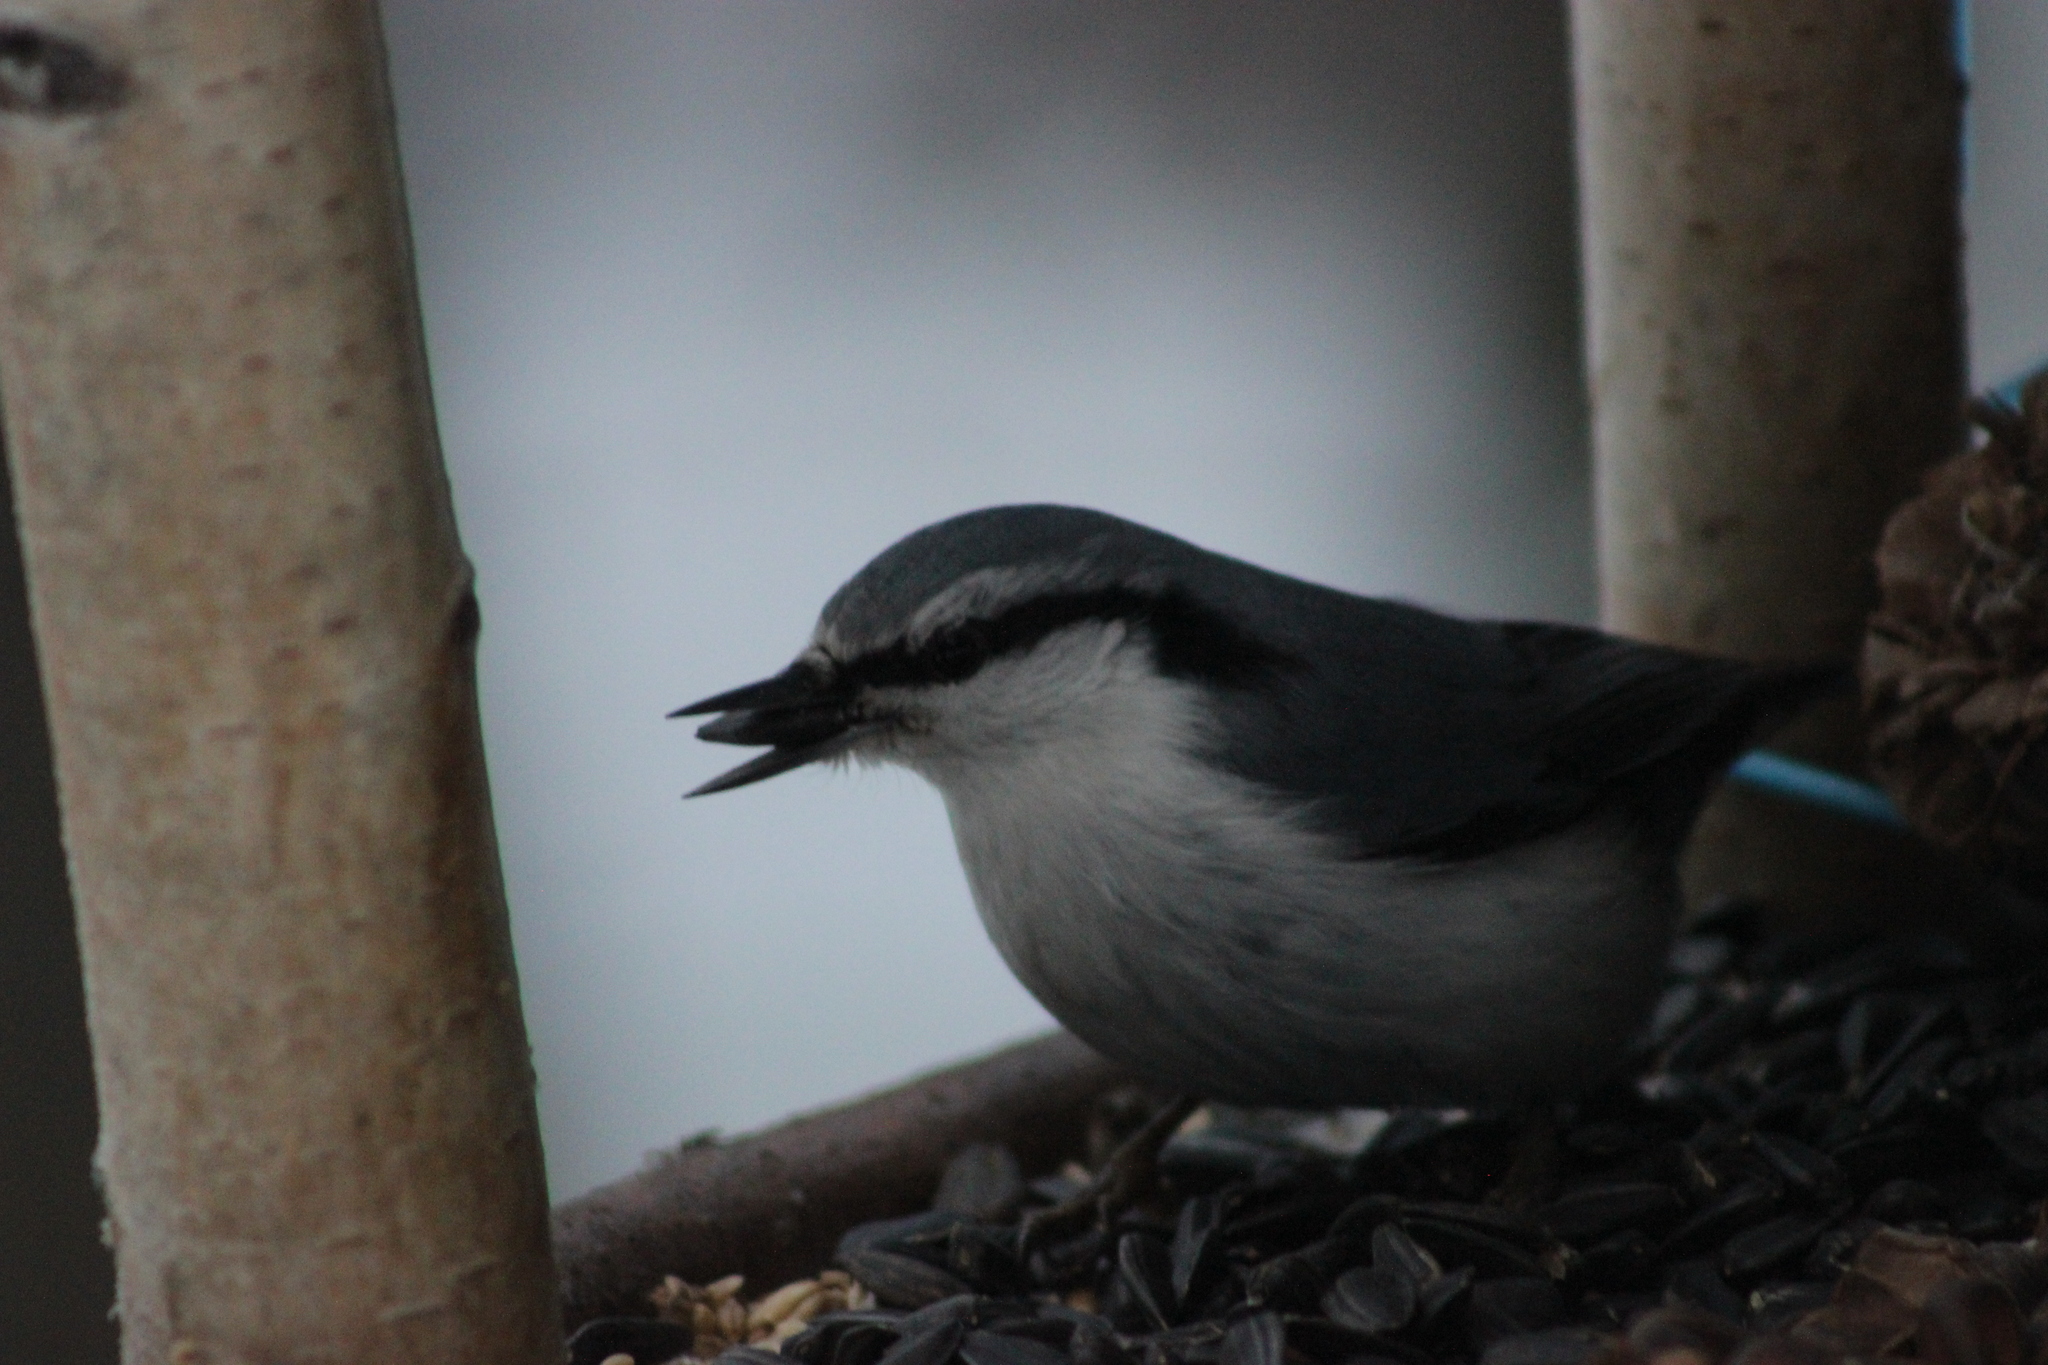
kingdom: Animalia
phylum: Chordata
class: Aves
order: Passeriformes
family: Sittidae
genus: Sitta
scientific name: Sitta europaea
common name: Eurasian nuthatch
